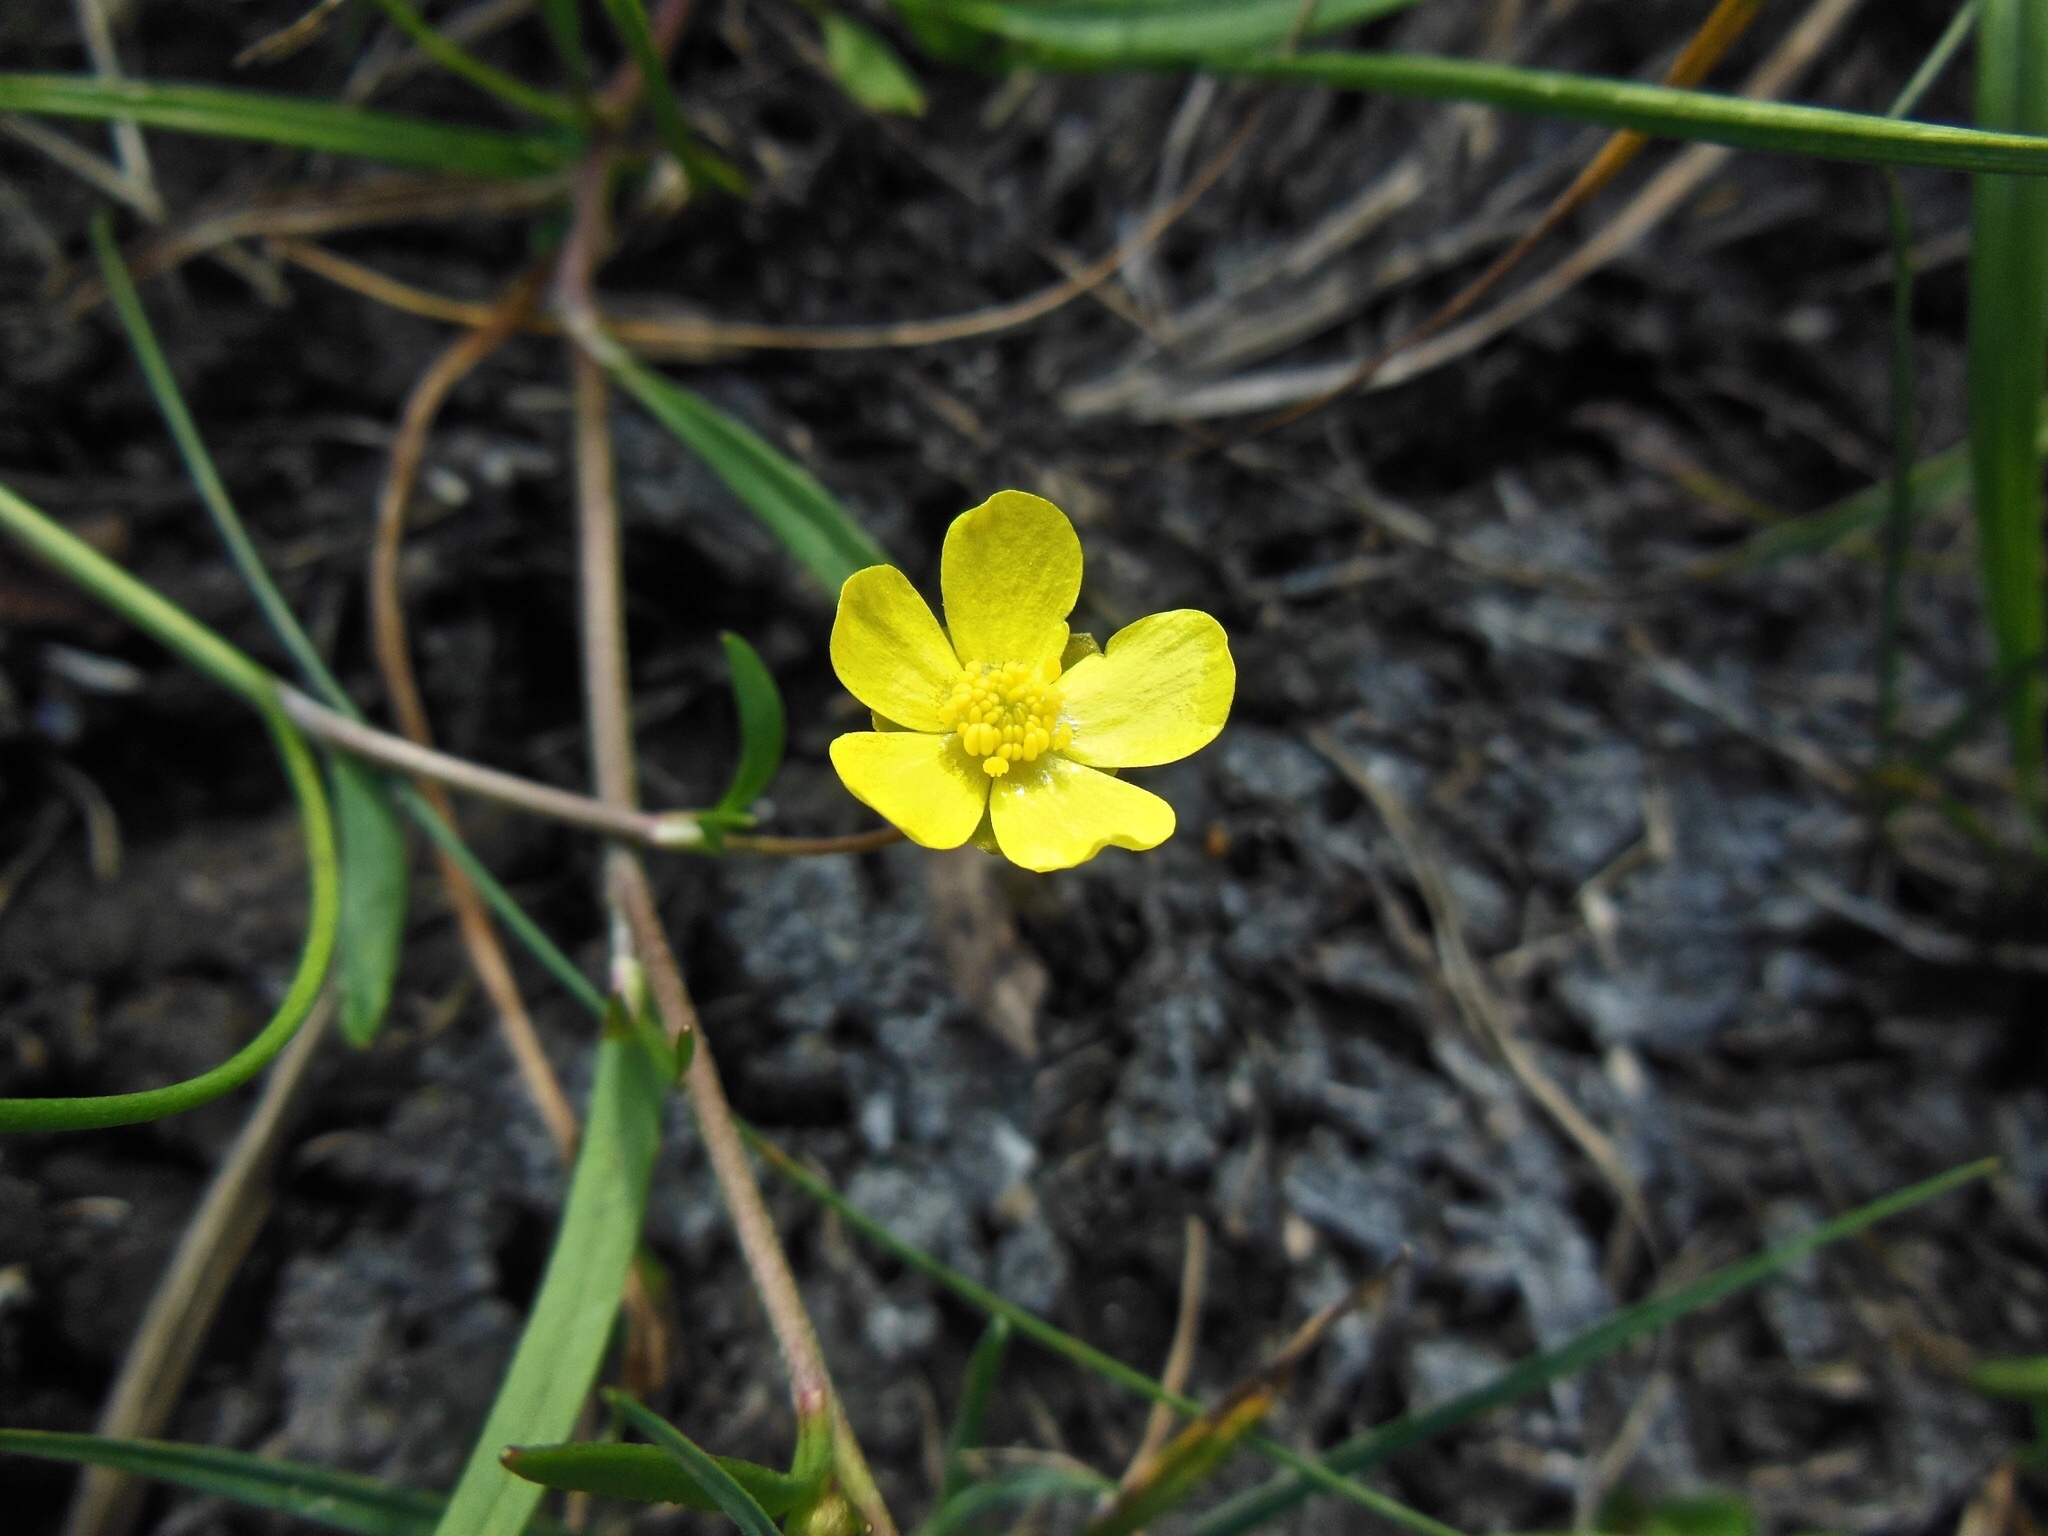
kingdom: Plantae
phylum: Tracheophyta
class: Magnoliopsida
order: Ranunculales
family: Ranunculaceae
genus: Ranunculus
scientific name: Ranunculus flammula
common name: Lesser spearwort
